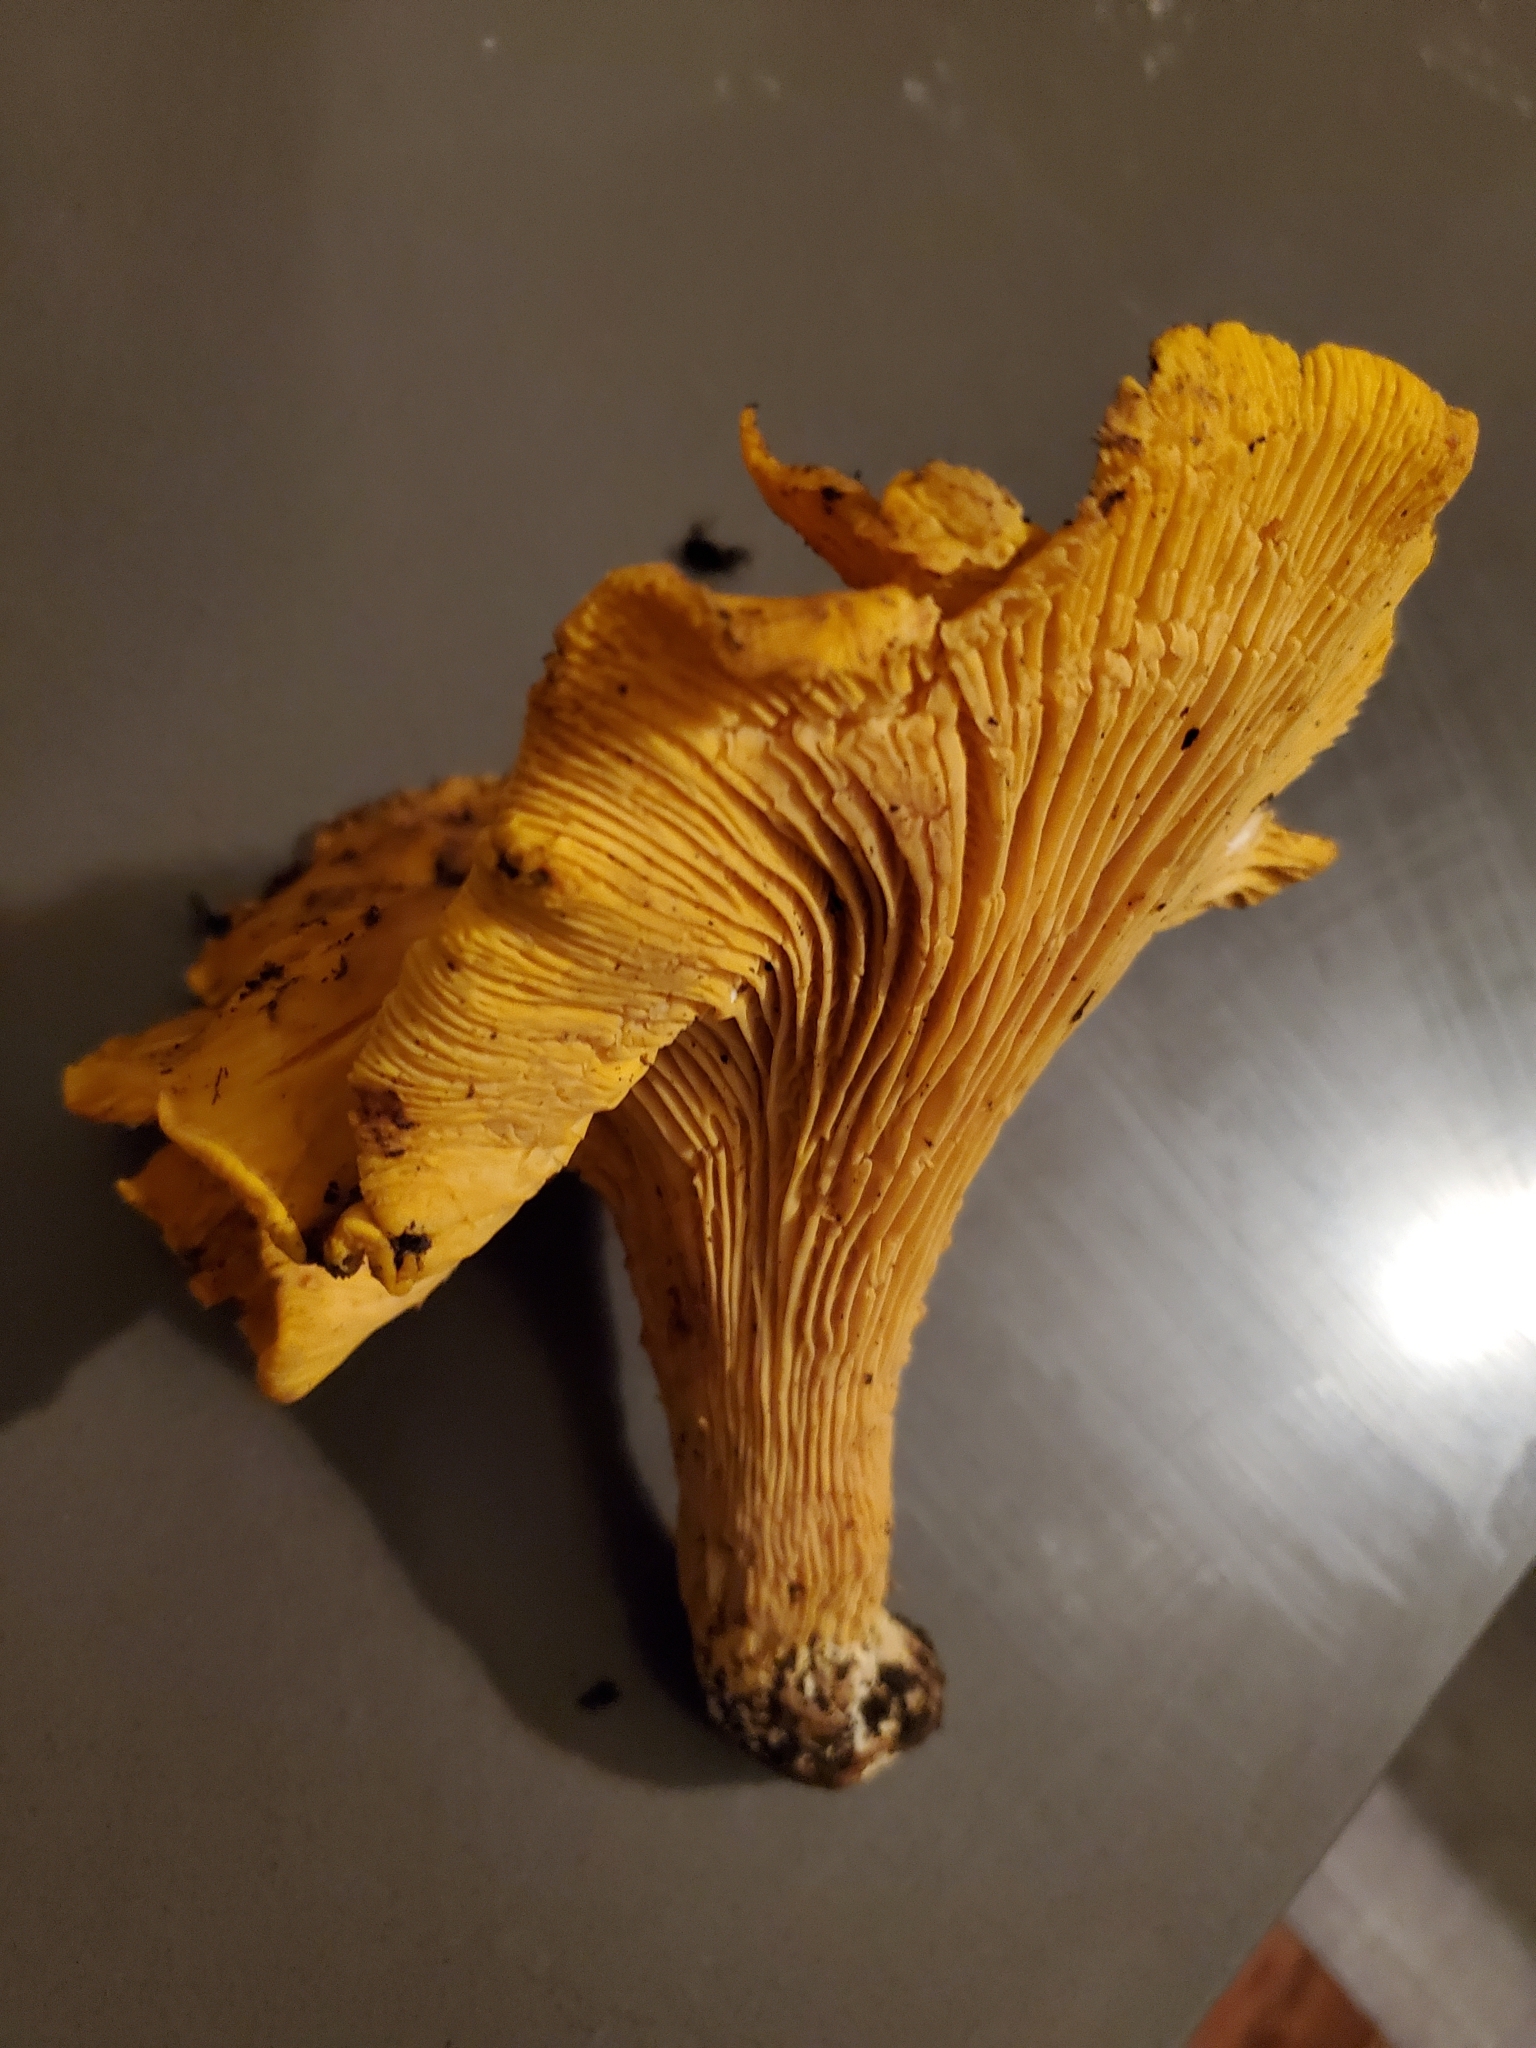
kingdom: Fungi
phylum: Basidiomycota
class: Agaricomycetes
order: Cantharellales
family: Hydnaceae
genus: Cantharellus
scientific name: Cantharellus californicus
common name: California golden chanterelle
